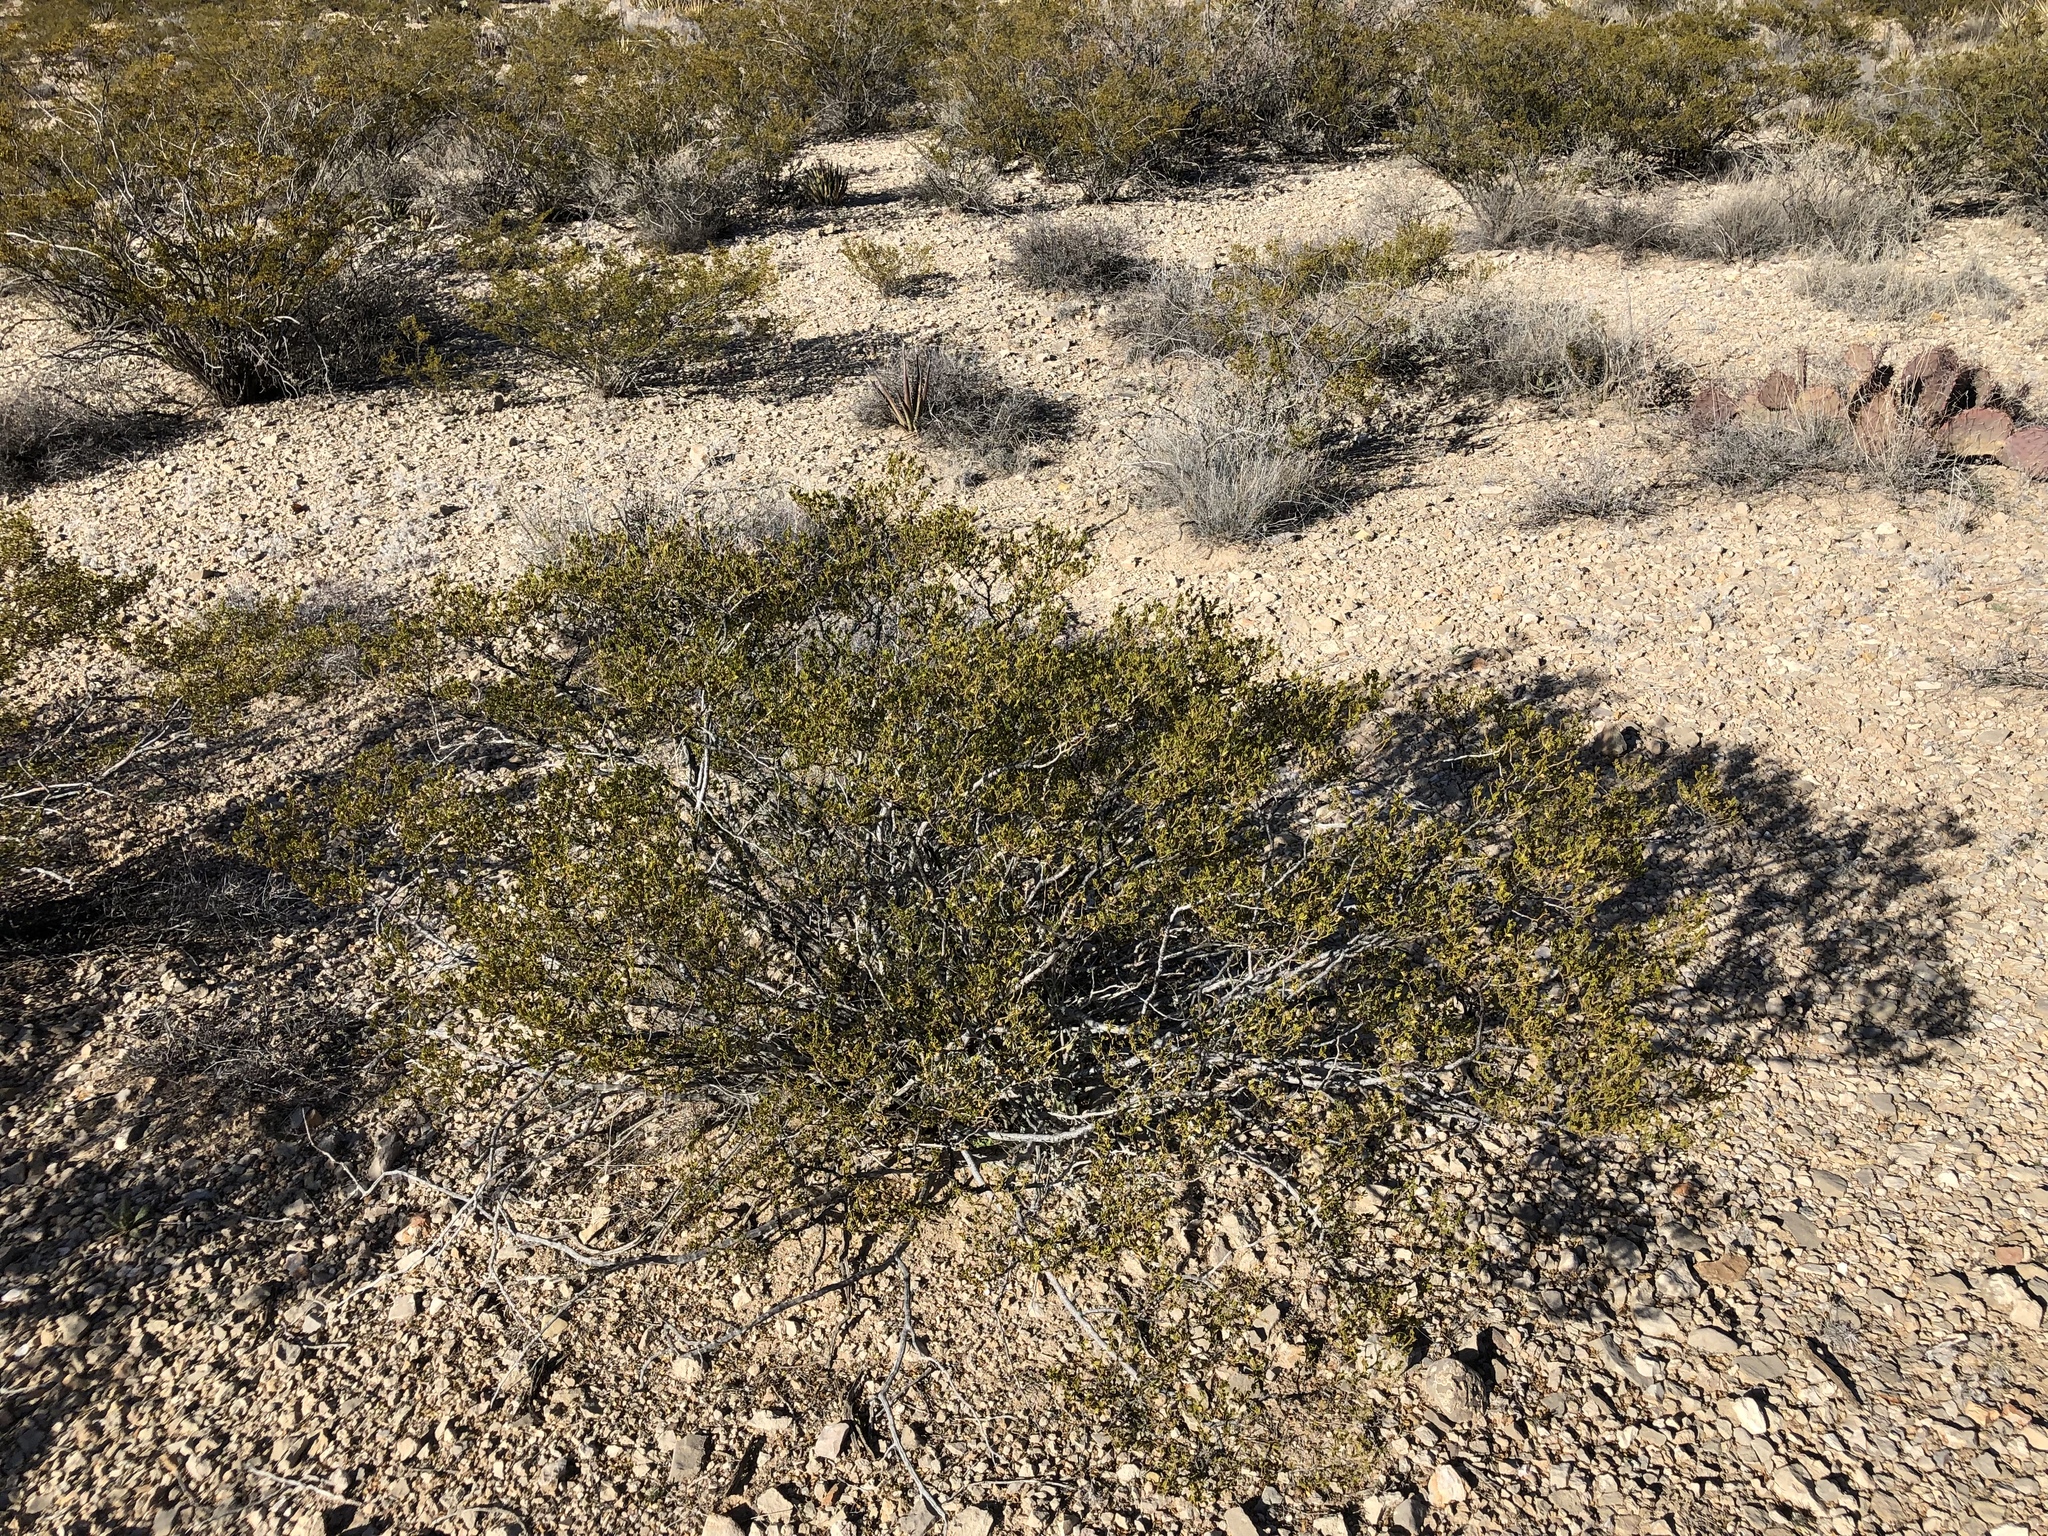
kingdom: Plantae
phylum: Tracheophyta
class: Magnoliopsida
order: Zygophyllales
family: Zygophyllaceae
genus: Larrea
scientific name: Larrea tridentata
